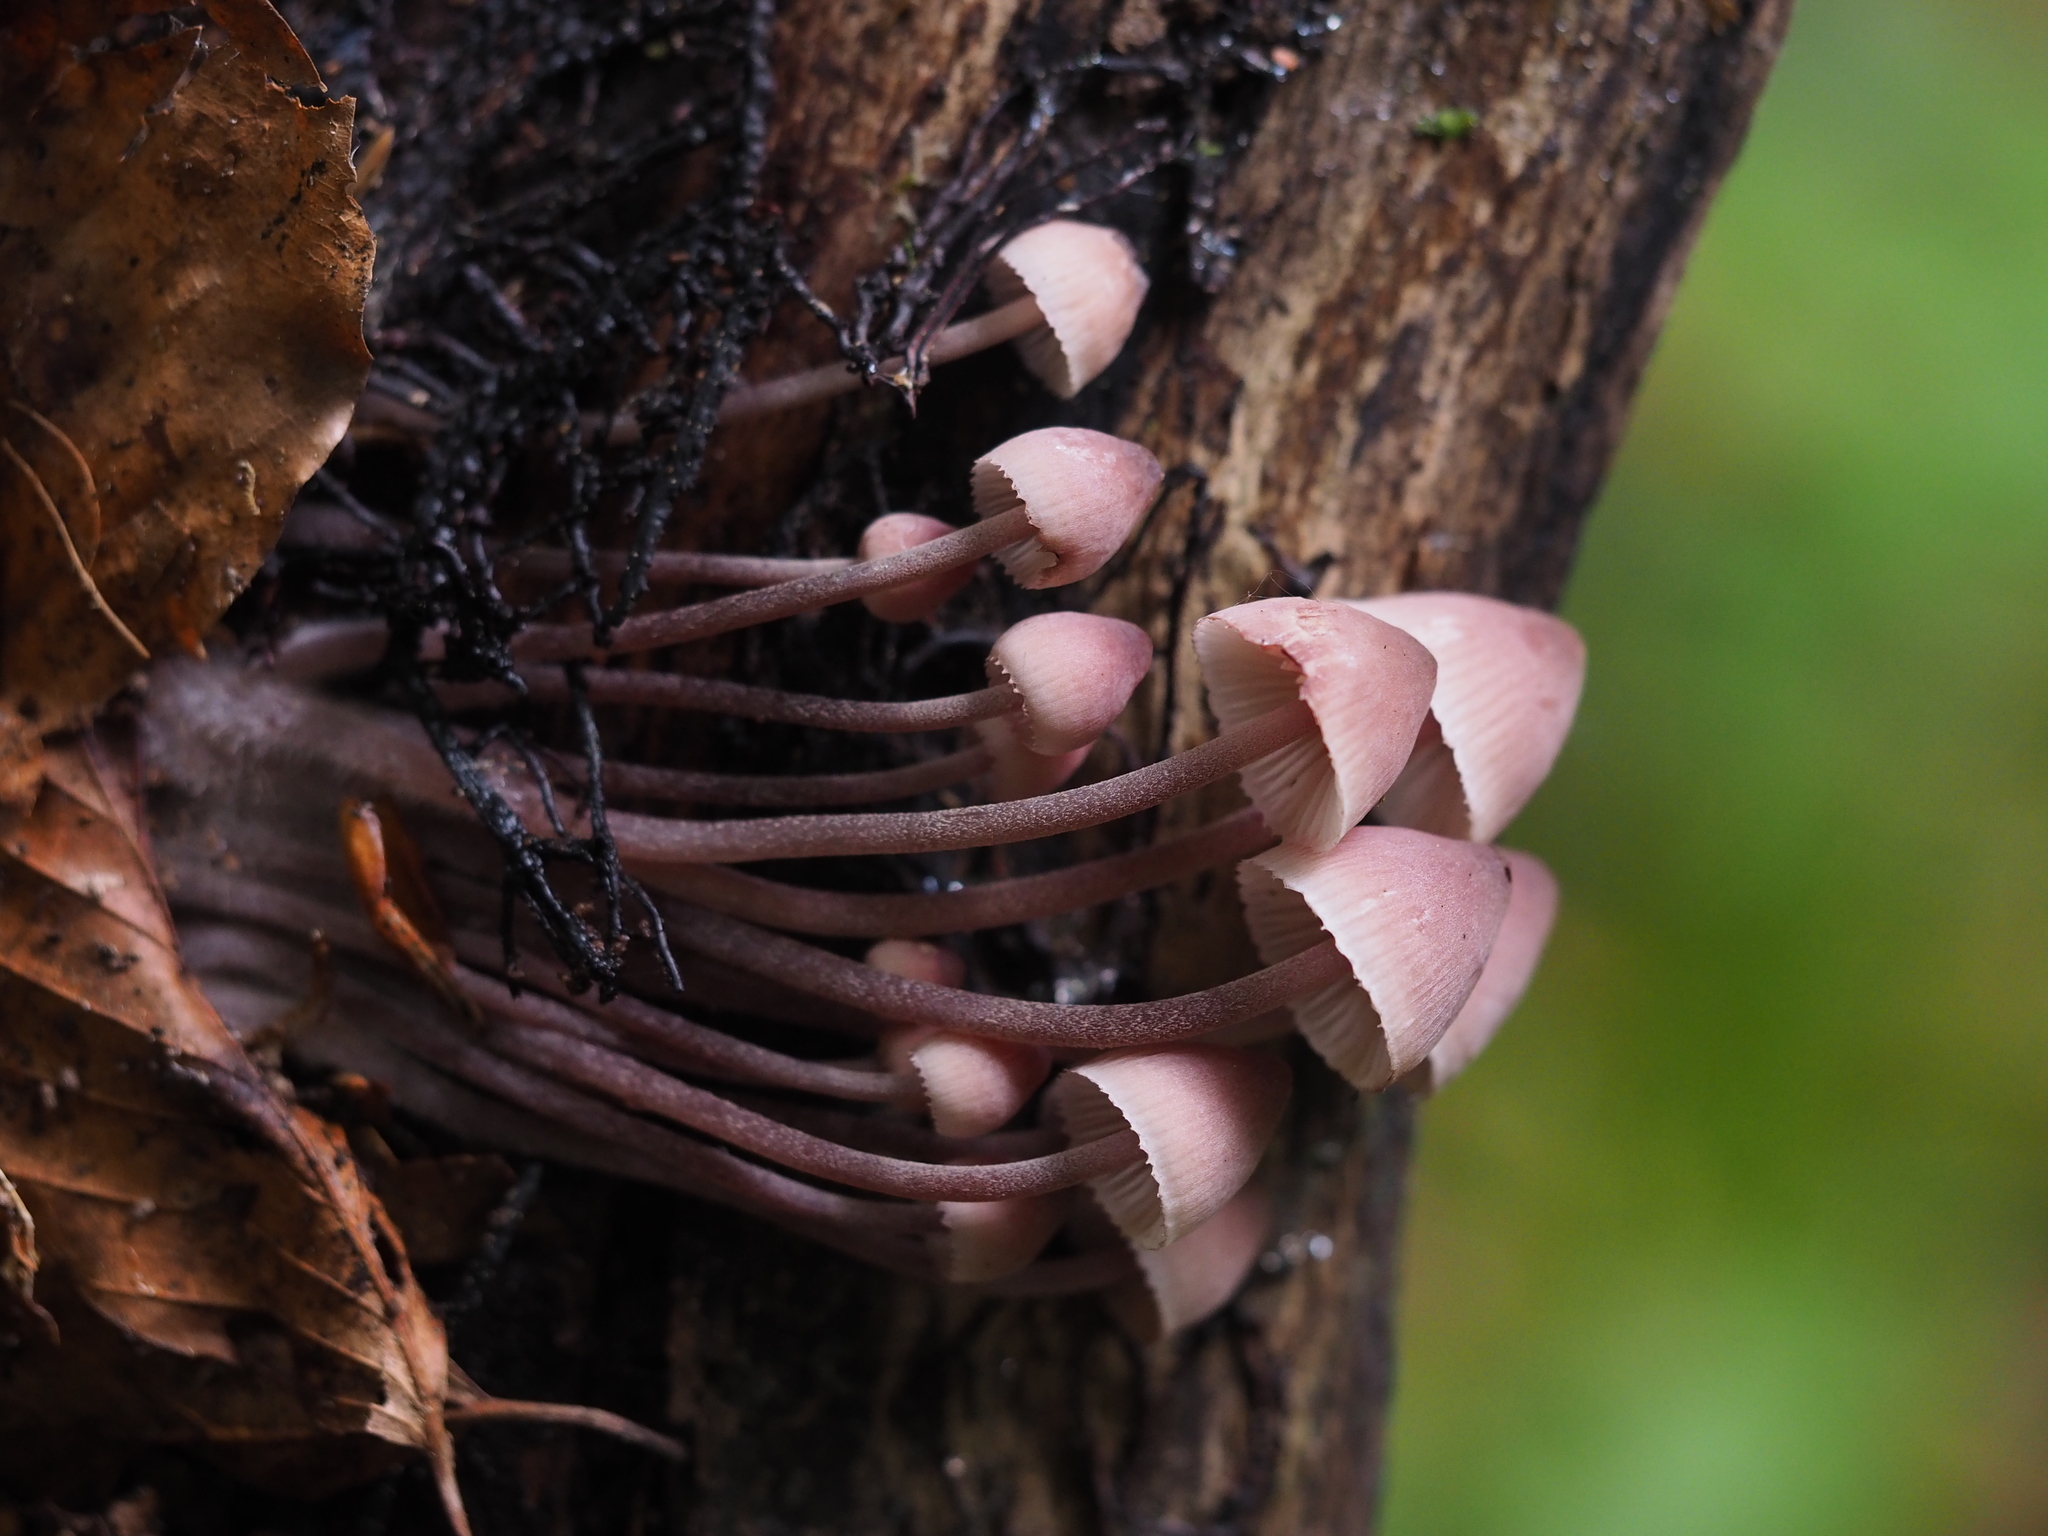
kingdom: Fungi
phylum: Basidiomycota
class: Agaricomycetes
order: Agaricales
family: Mycenaceae
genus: Mycena
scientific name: Mycena haematopus
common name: Burgundydrop bonnet
